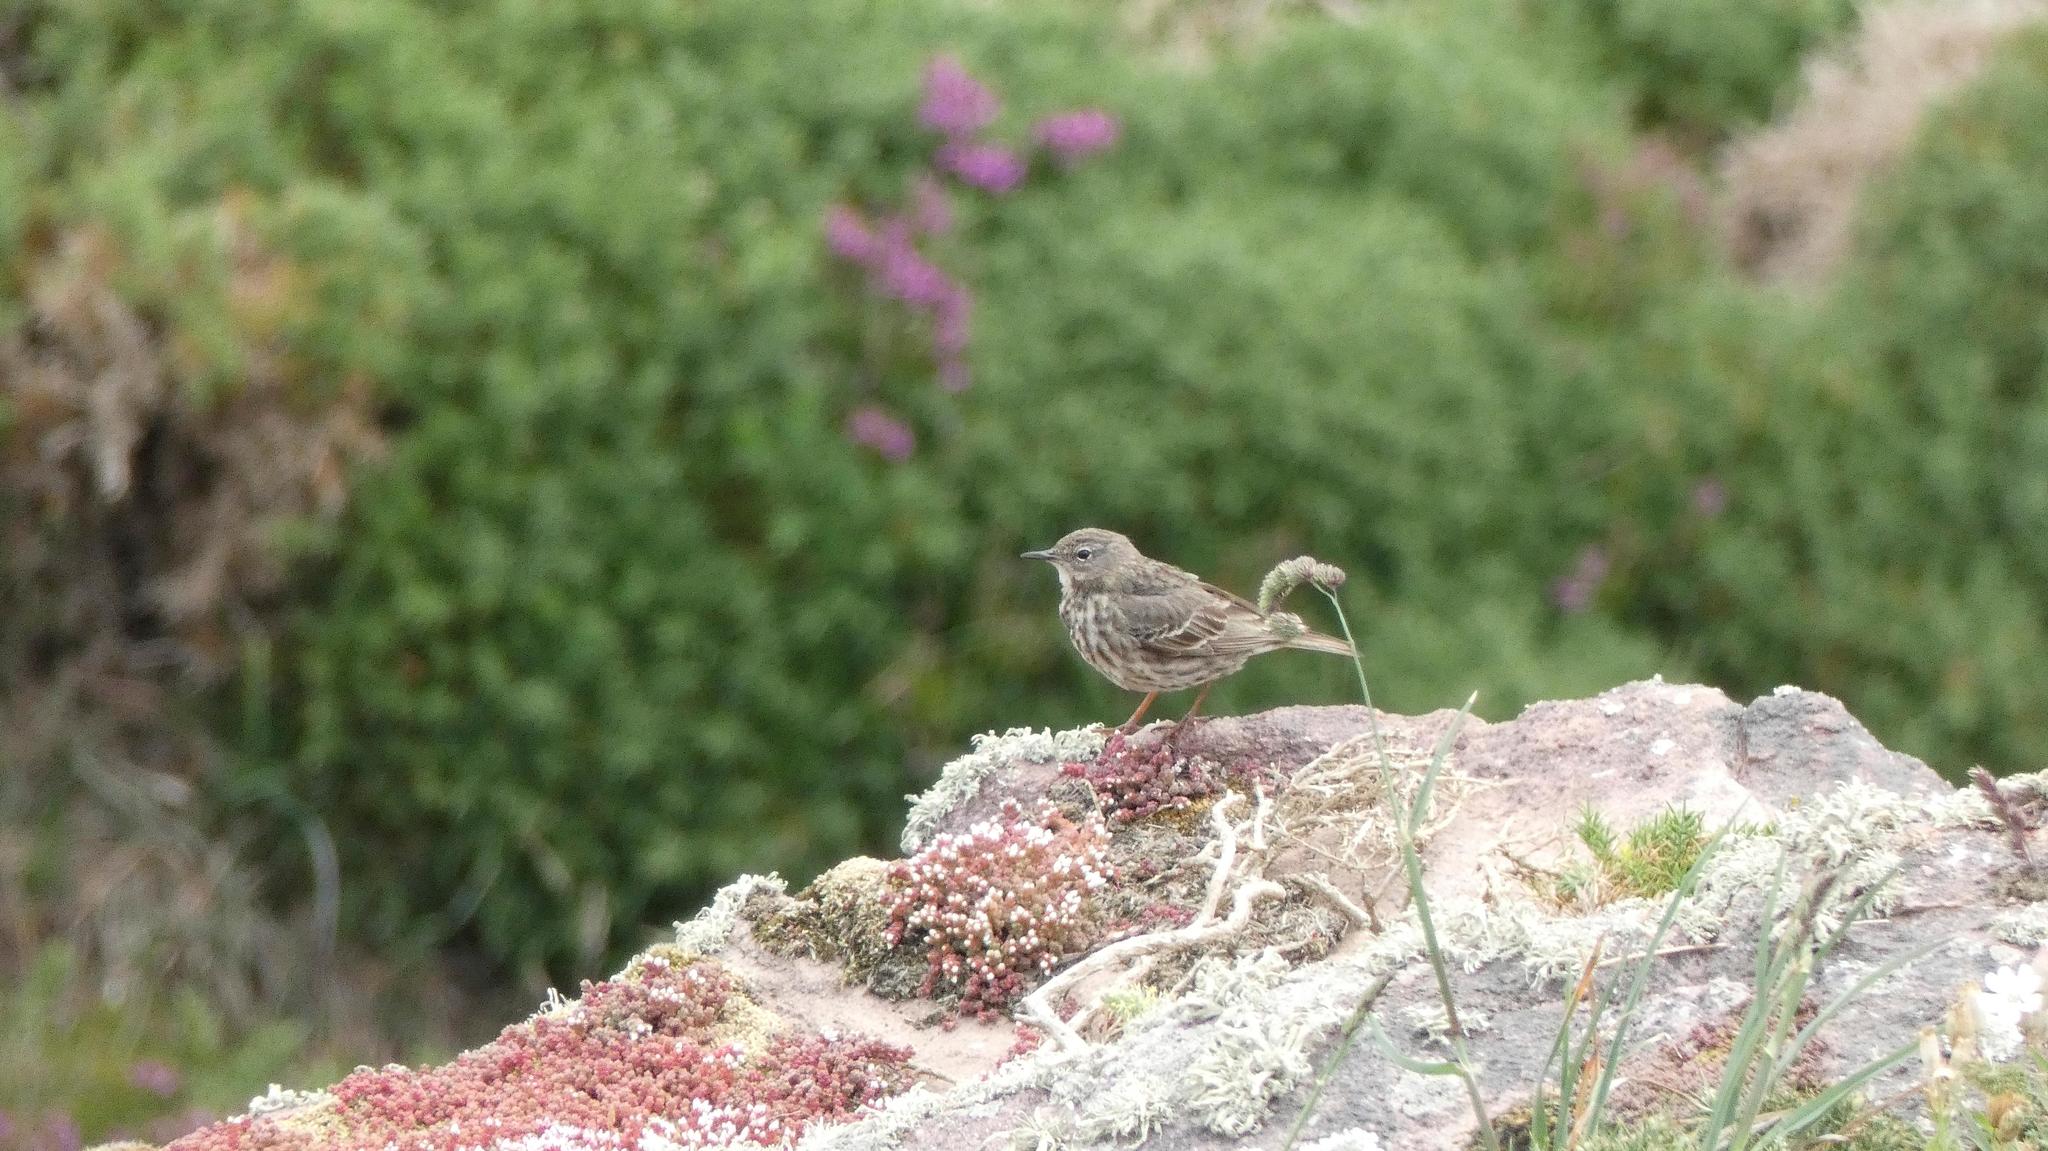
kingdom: Animalia
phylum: Chordata
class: Aves
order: Passeriformes
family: Motacillidae
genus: Anthus
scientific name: Anthus petrosus
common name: Eurasian rock pipit
